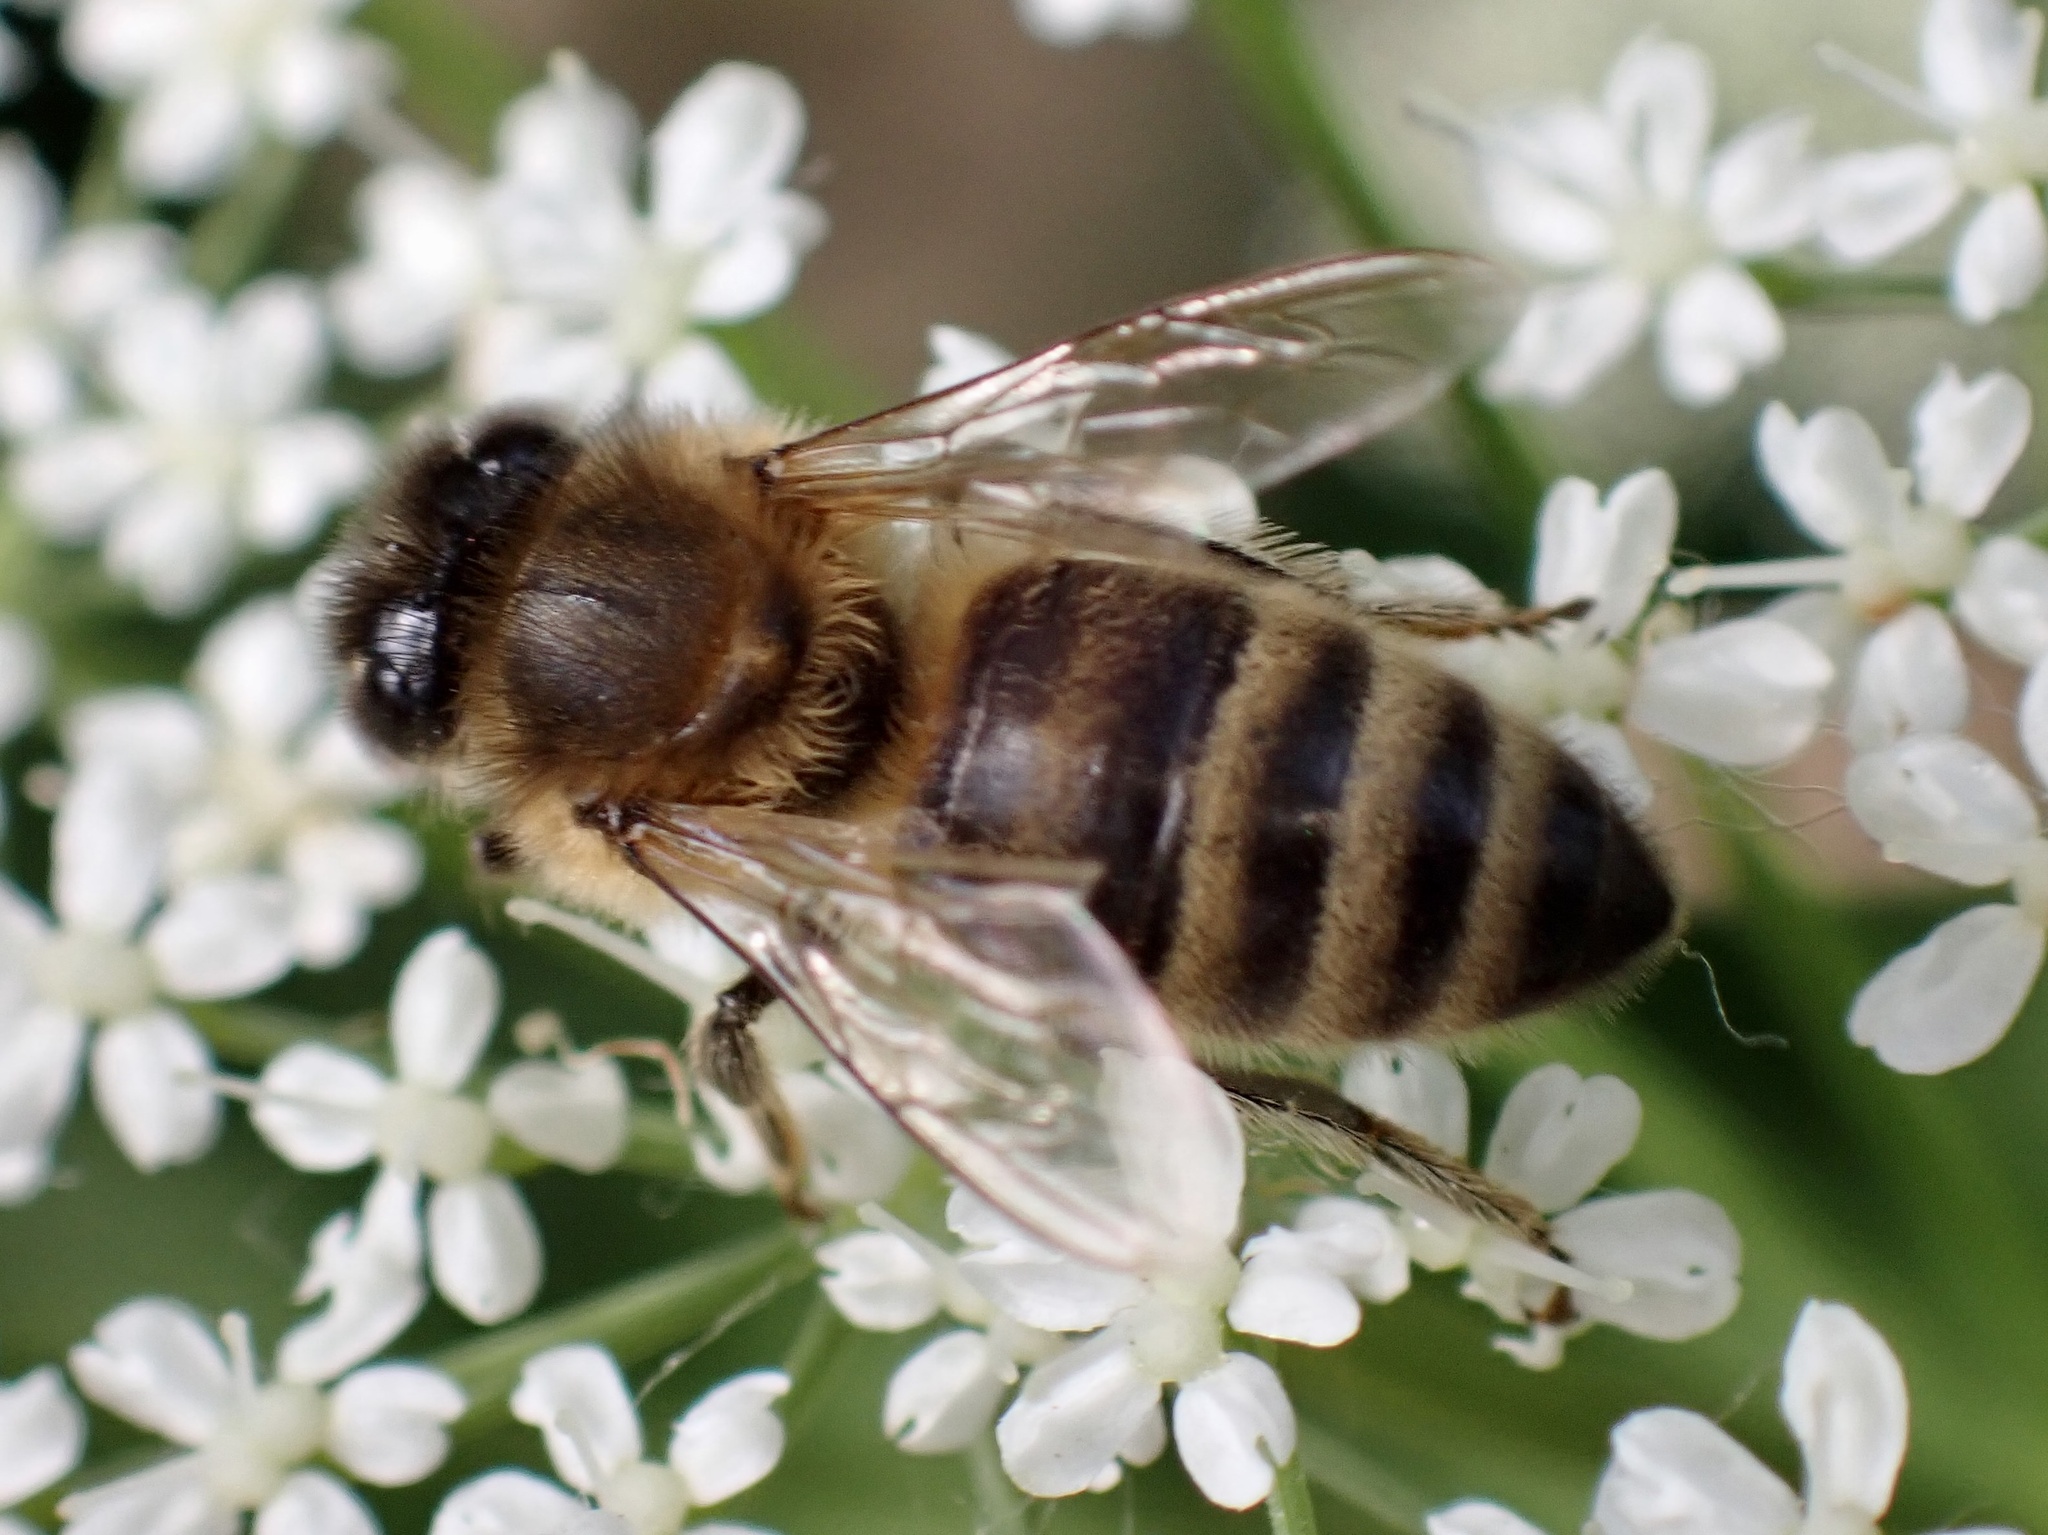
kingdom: Animalia
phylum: Arthropoda
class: Insecta
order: Hymenoptera
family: Apidae
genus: Apis
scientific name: Apis mellifera
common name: Honey bee
